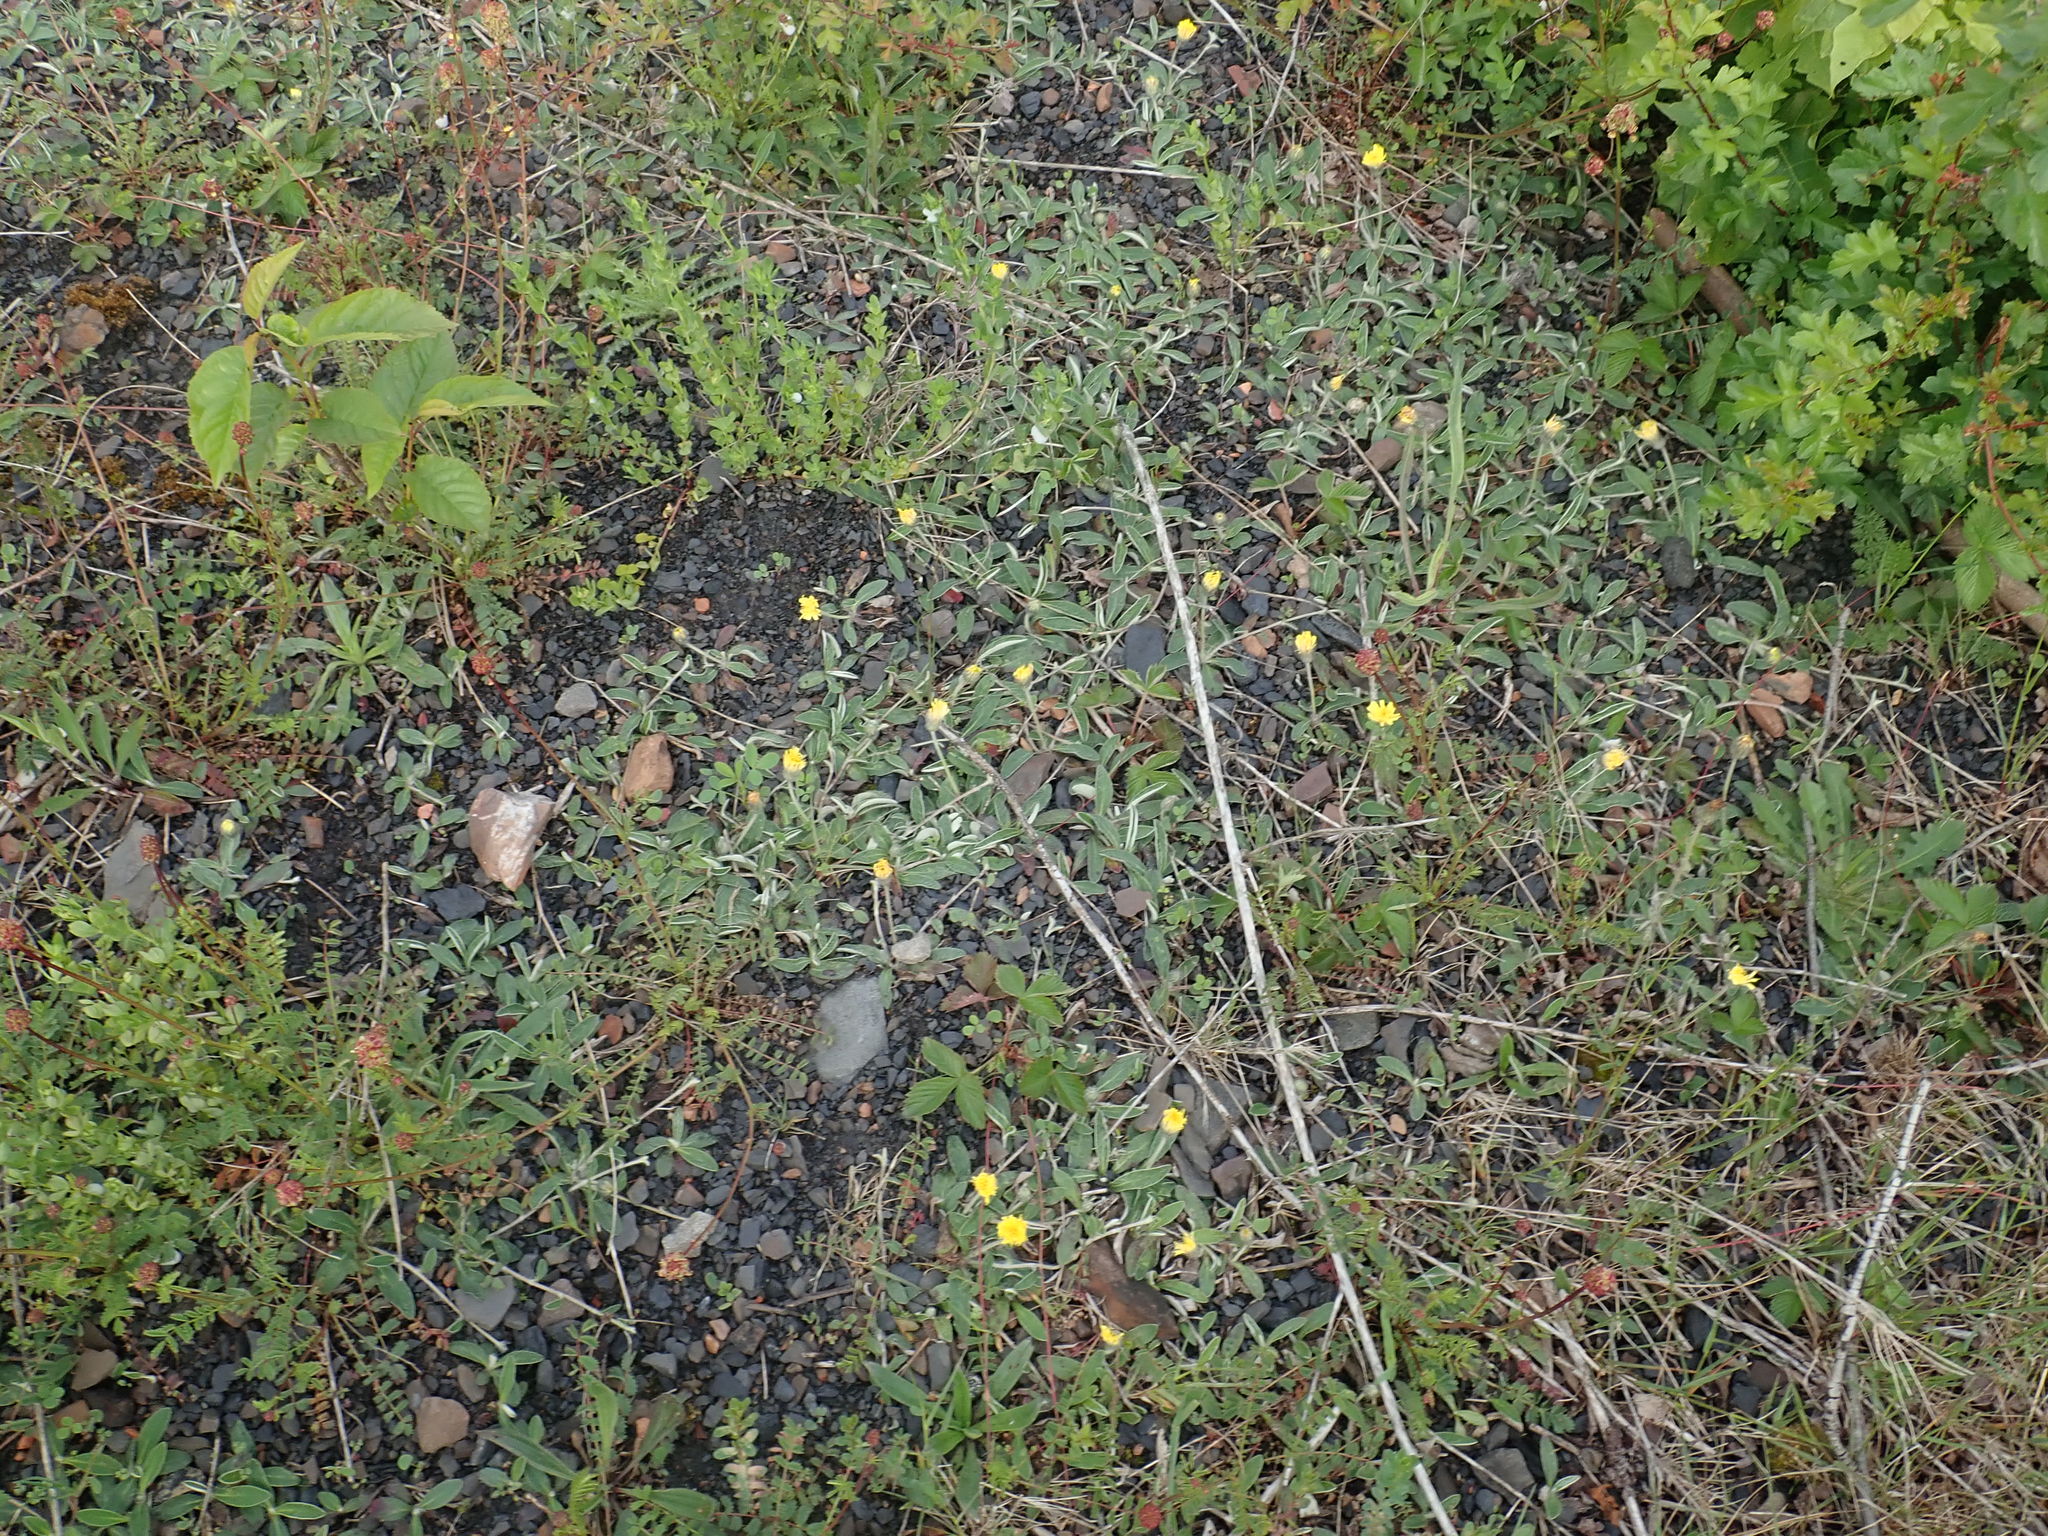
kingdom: Plantae
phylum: Tracheophyta
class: Magnoliopsida
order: Asterales
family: Asteraceae
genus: Pilosella
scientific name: Pilosella officinarum
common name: Mouse-ear hawkweed
